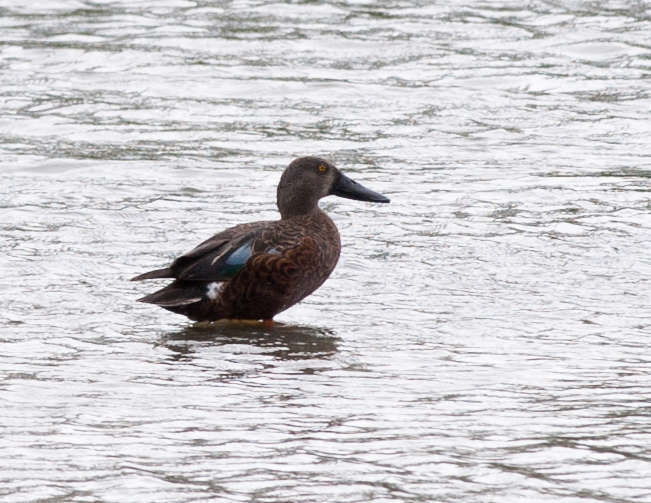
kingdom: Animalia
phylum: Chordata
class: Aves
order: Anseriformes
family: Anatidae
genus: Spatula
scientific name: Spatula rhynchotis
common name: Australian shoveler
